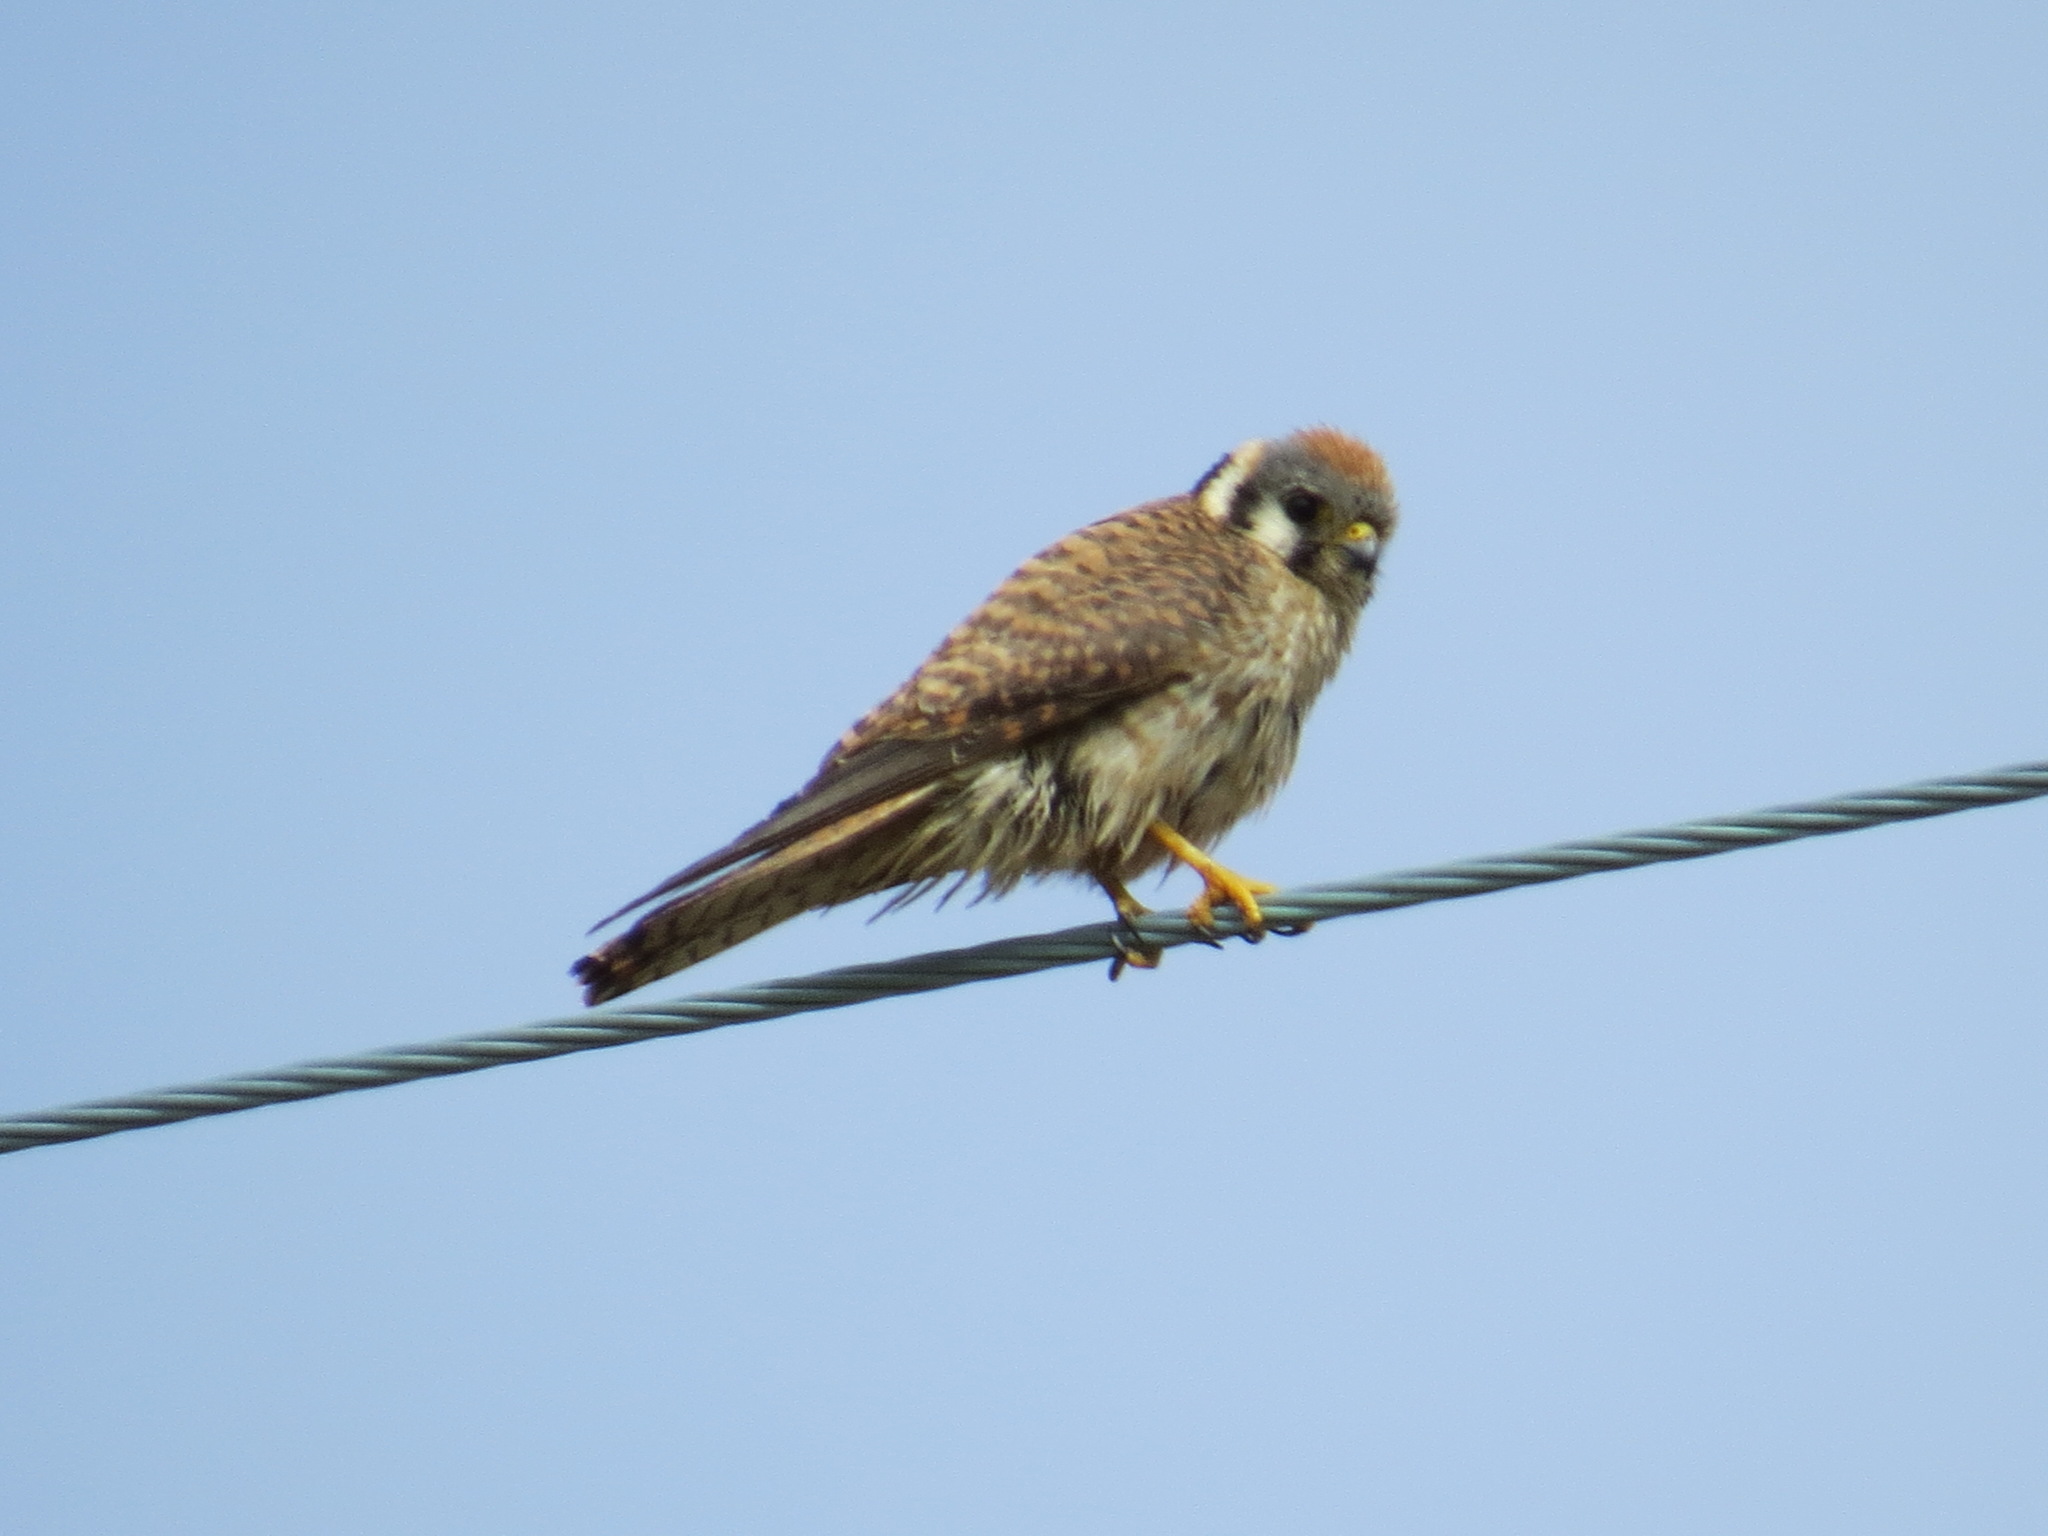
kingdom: Animalia
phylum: Chordata
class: Aves
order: Falconiformes
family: Falconidae
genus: Falco
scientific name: Falco sparverius
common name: American kestrel
